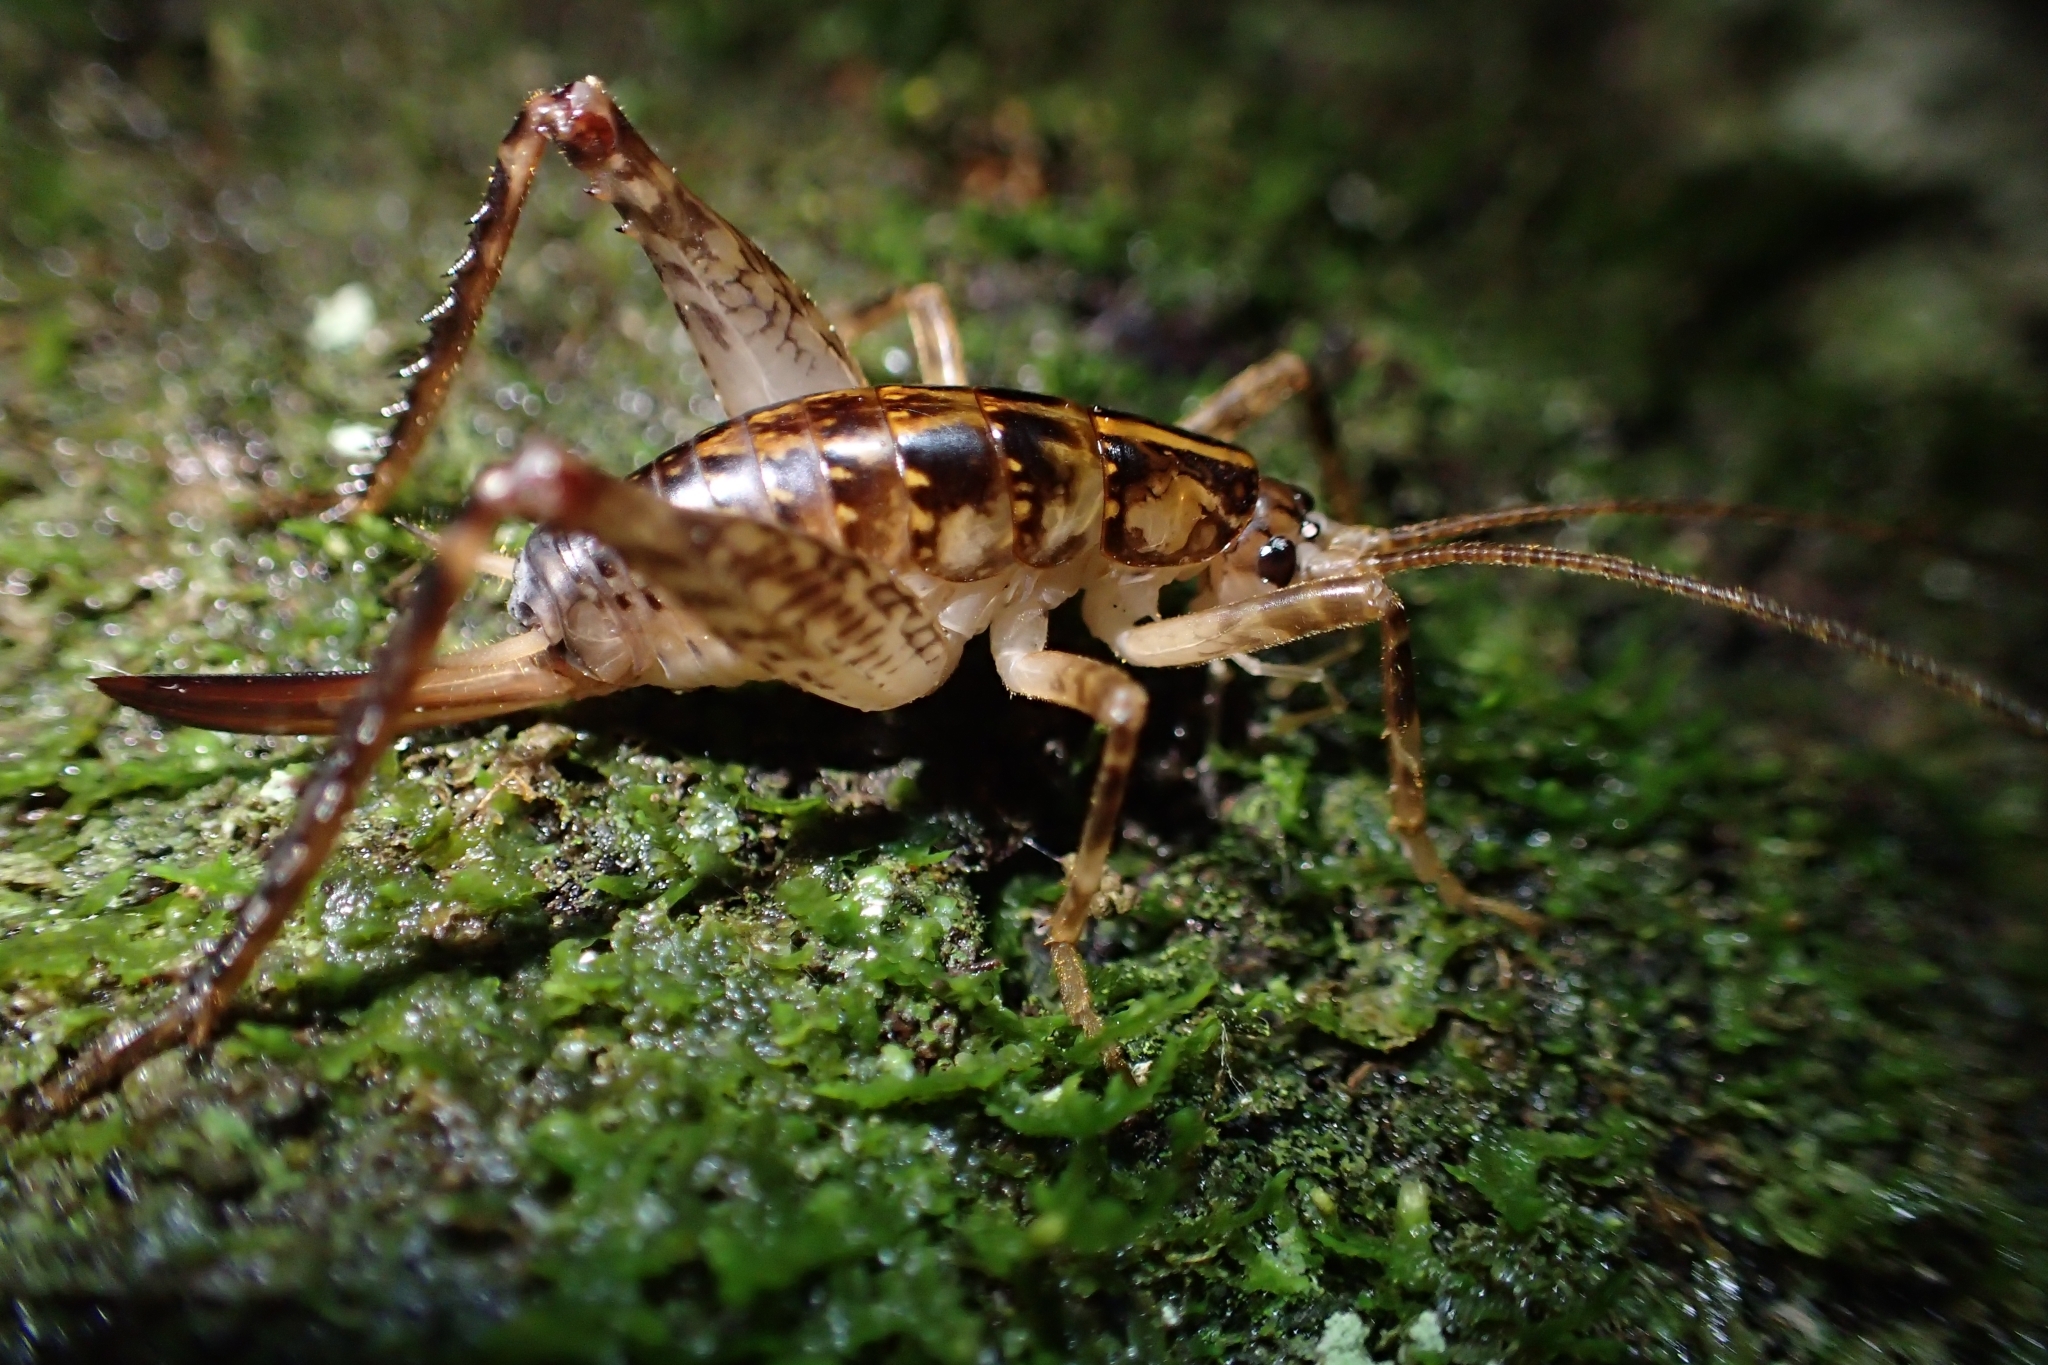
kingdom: Animalia
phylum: Arthropoda
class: Insecta
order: Orthoptera
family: Rhaphidophoridae
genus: Talitropsis
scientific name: Talitropsis sedilloti
